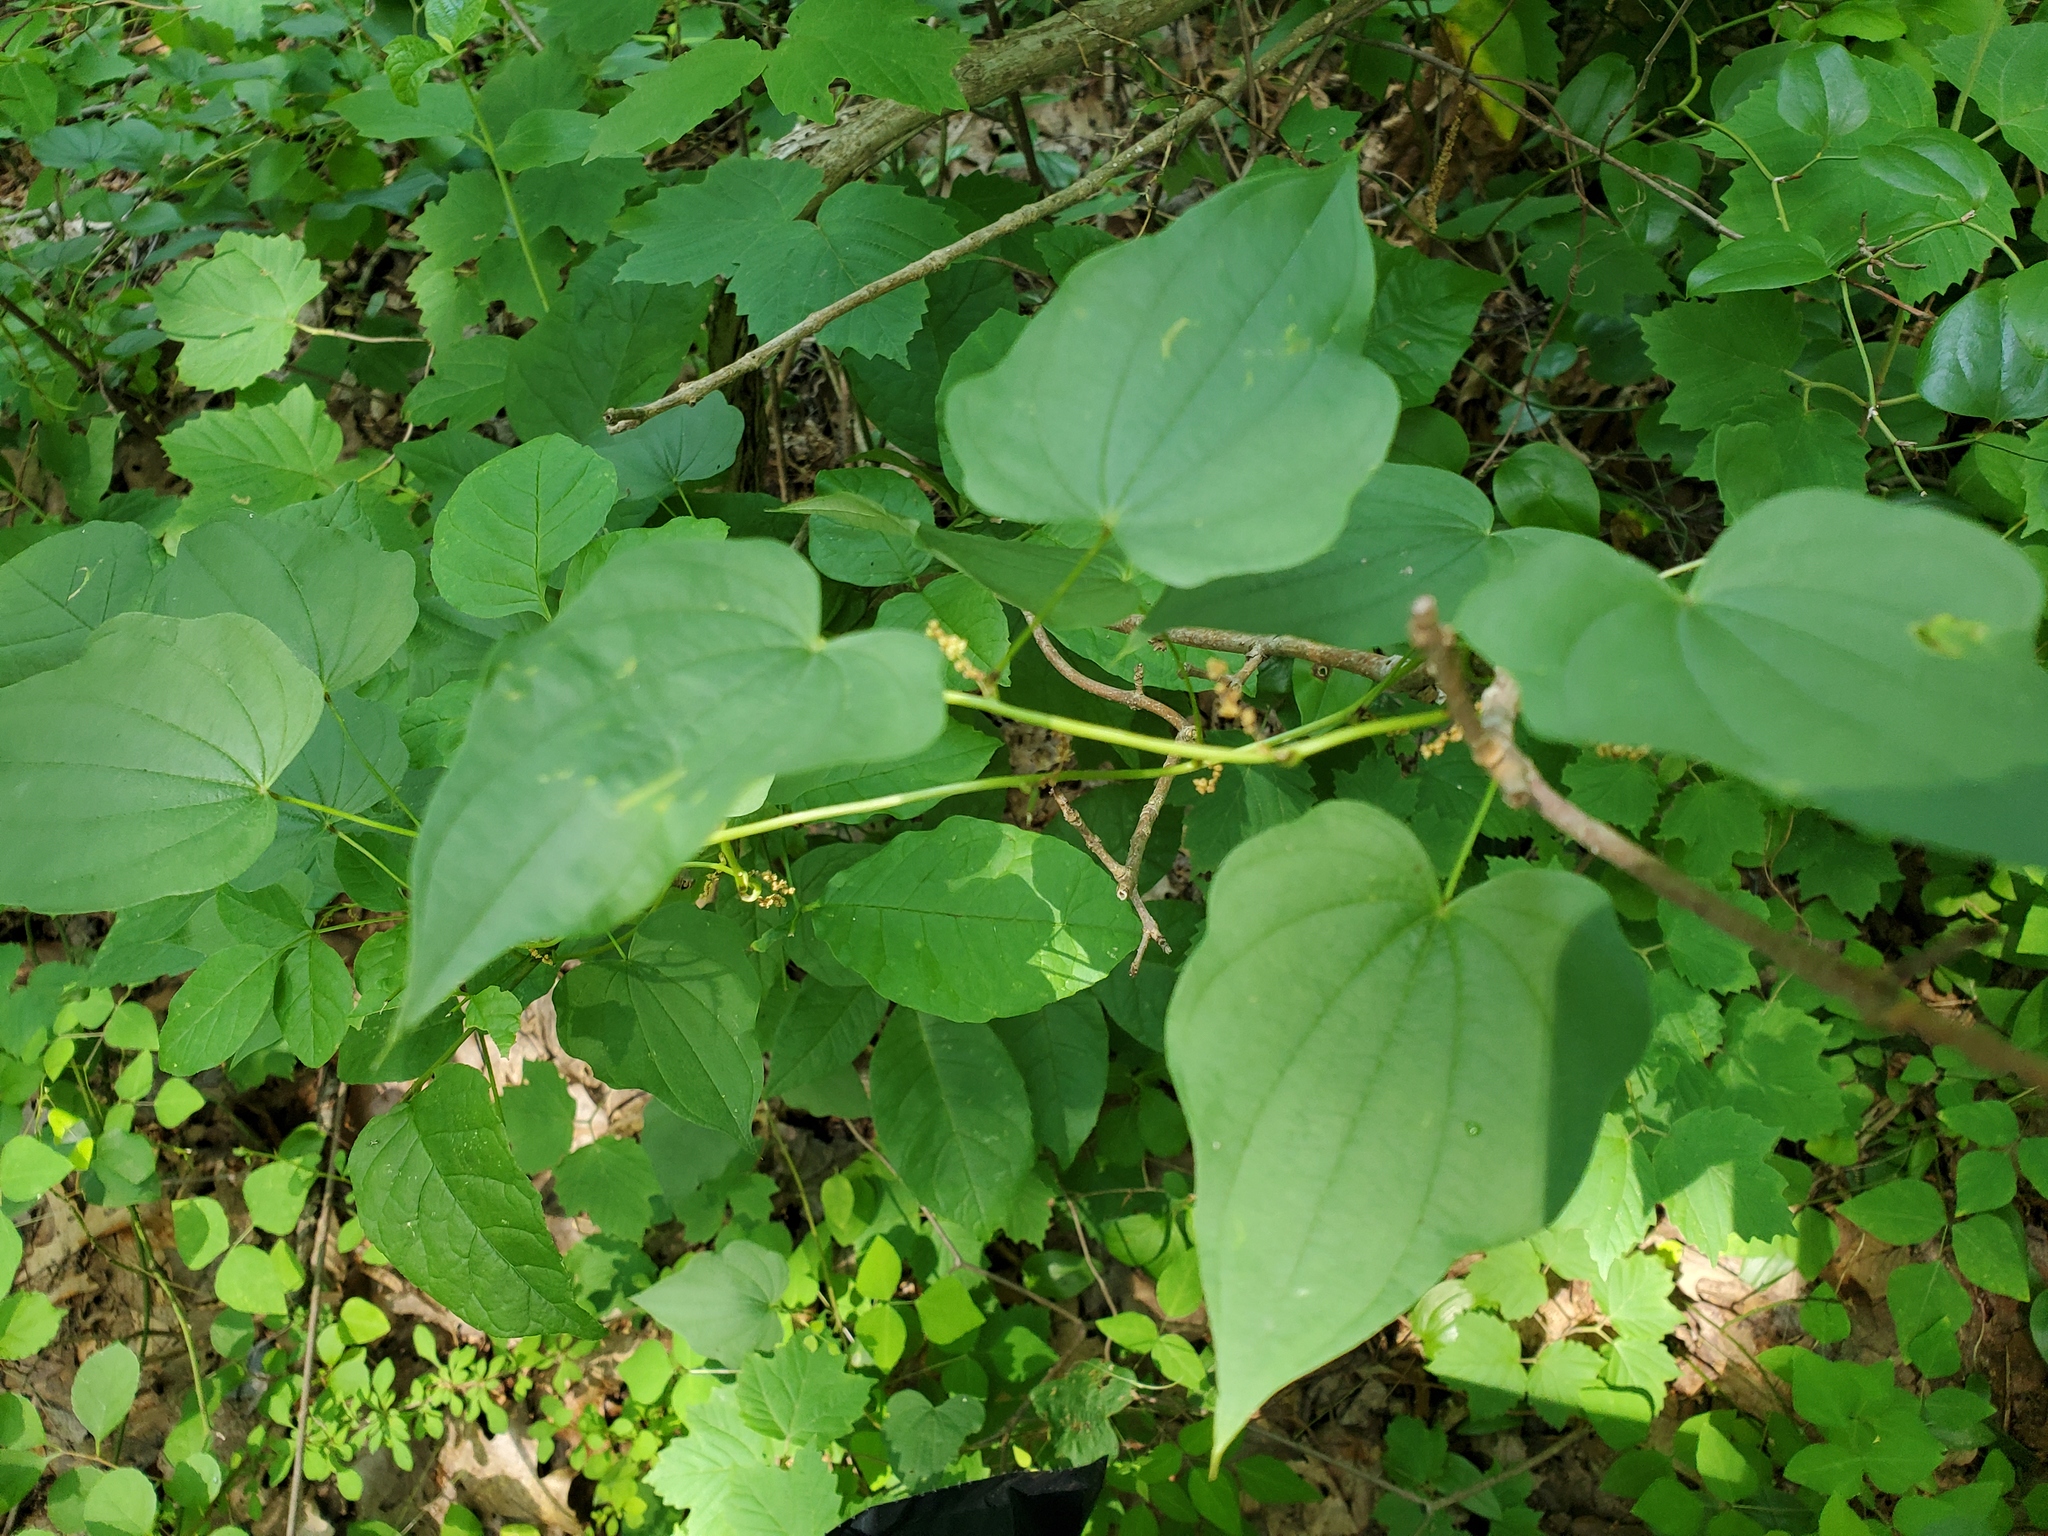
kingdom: Plantae
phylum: Tracheophyta
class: Liliopsida
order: Dioscoreales
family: Dioscoreaceae
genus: Dioscorea
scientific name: Dioscorea villosa
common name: Wild yam
